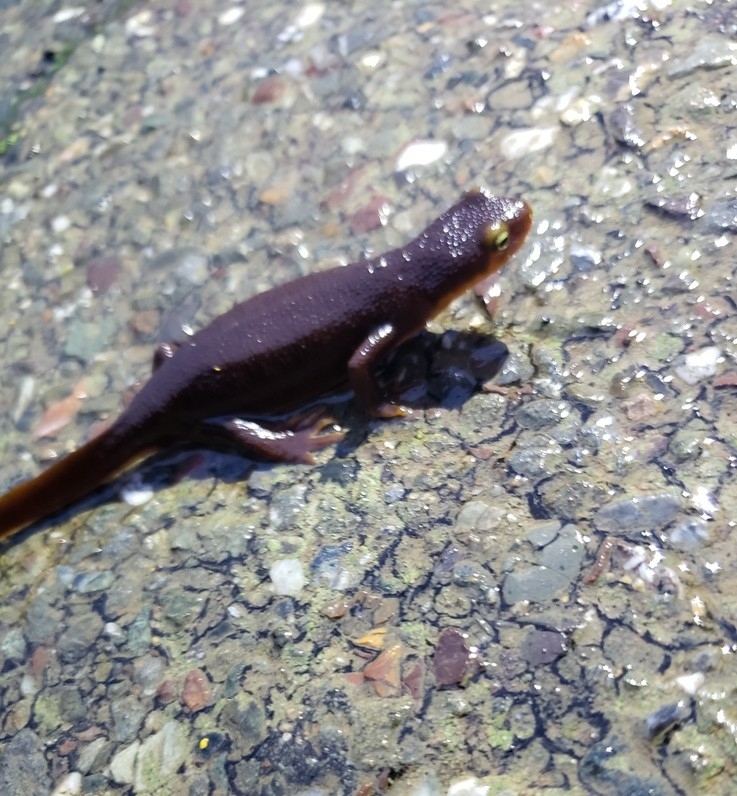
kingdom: Animalia
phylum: Chordata
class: Amphibia
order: Caudata
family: Salamandridae
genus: Taricha
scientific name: Taricha torosa
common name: California newt
